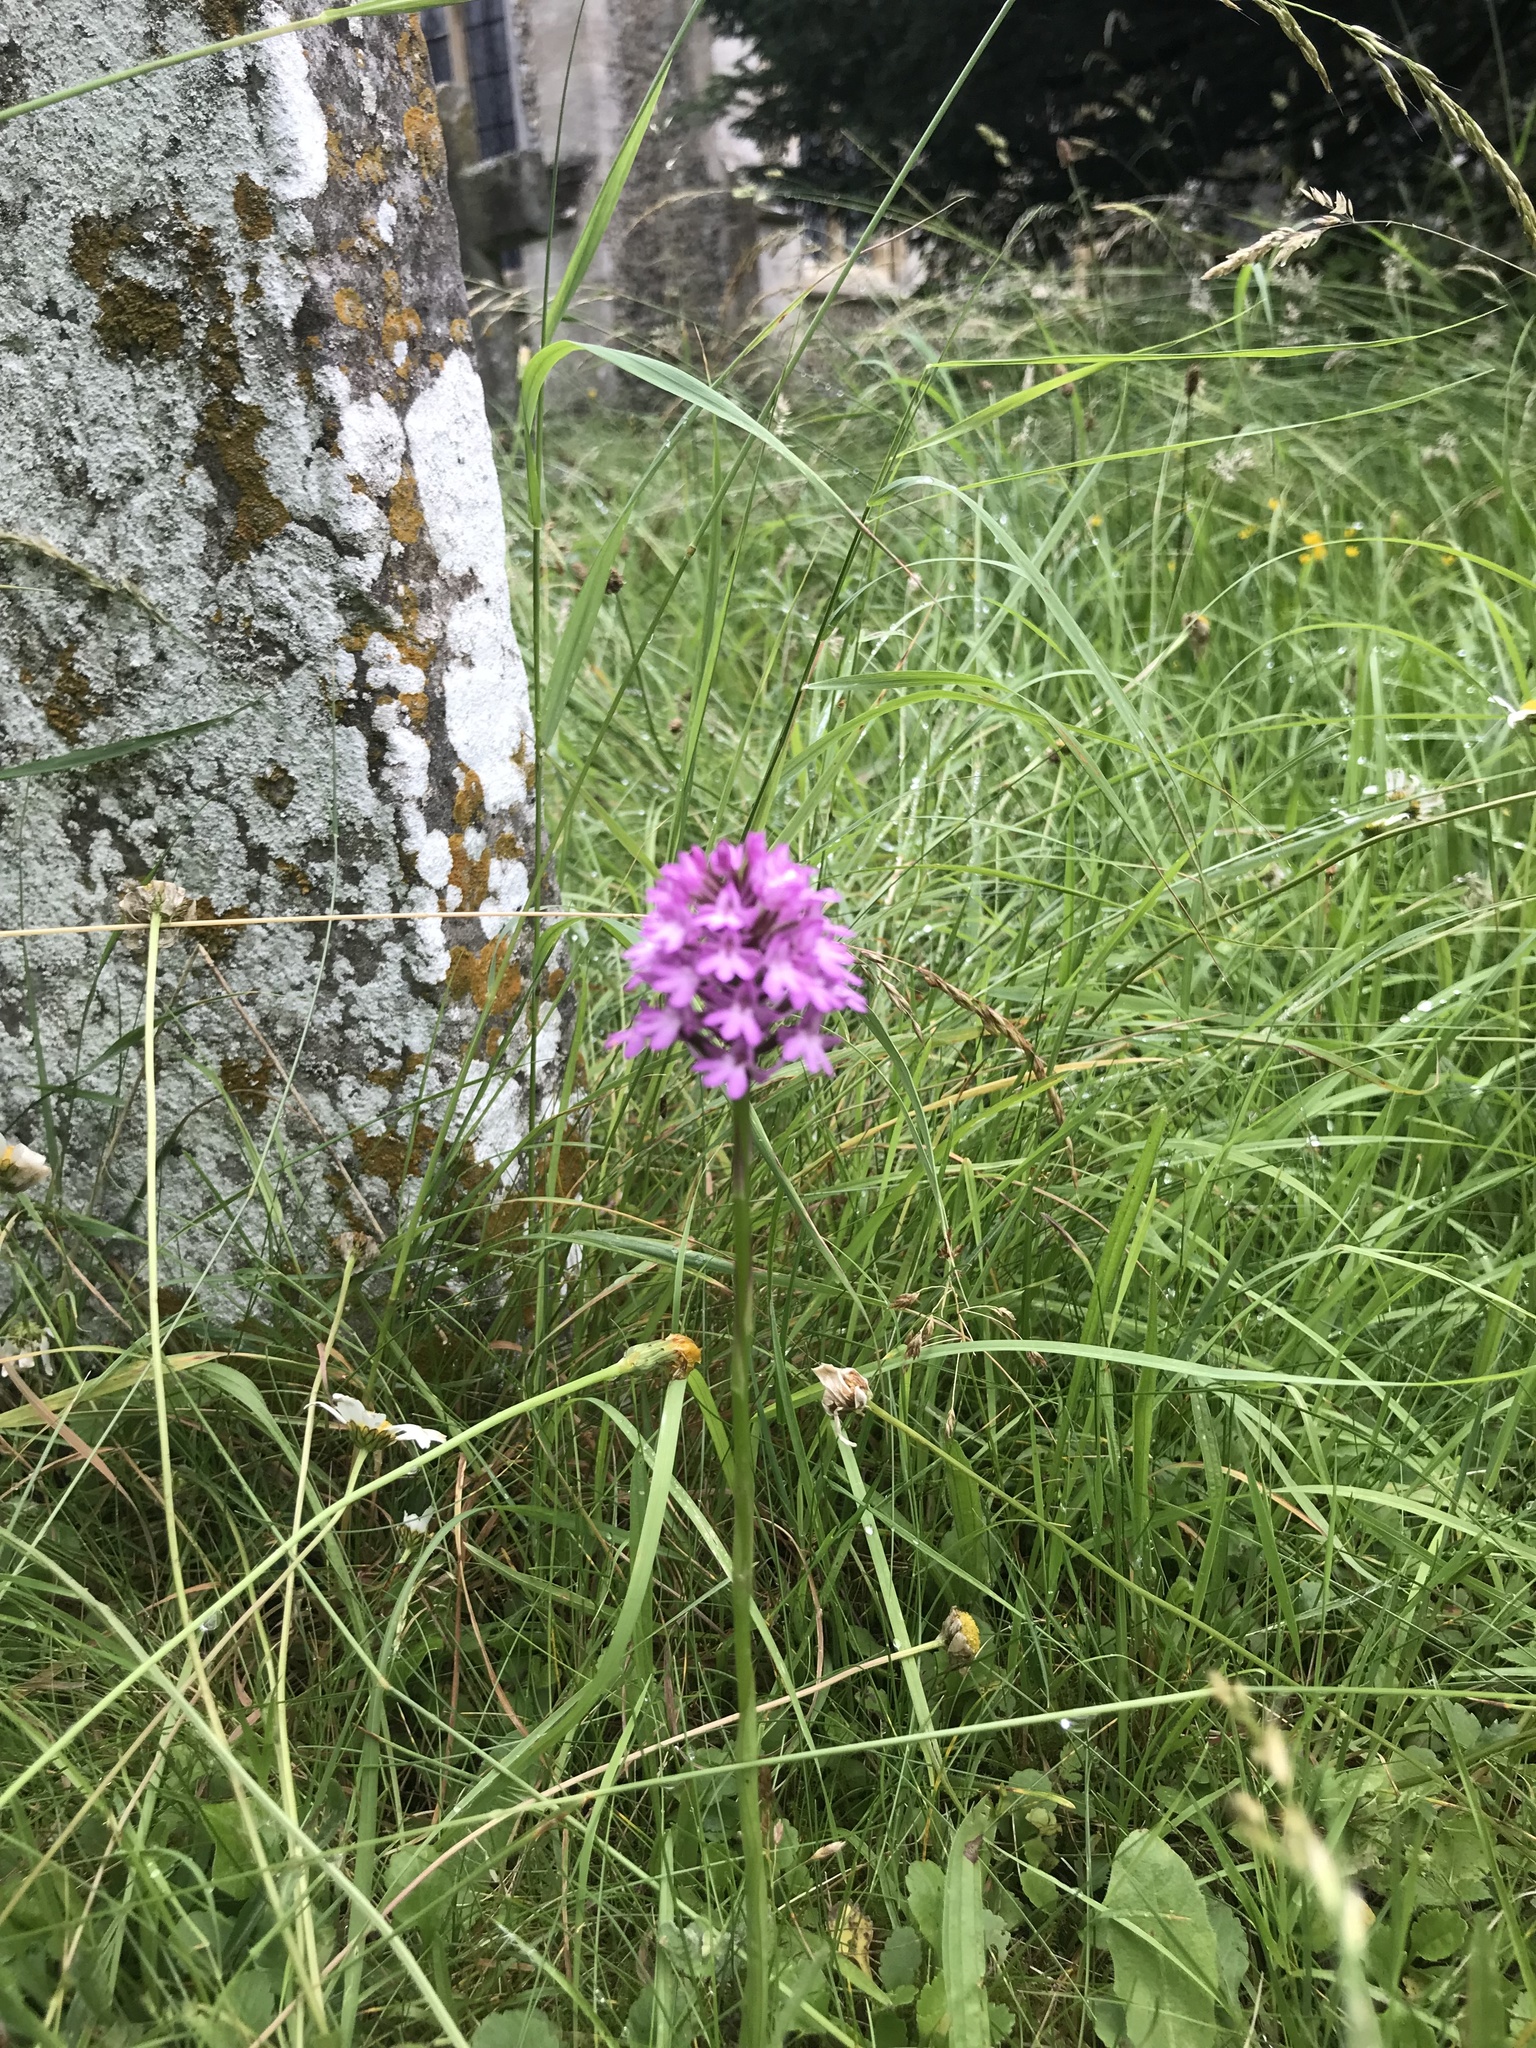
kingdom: Plantae
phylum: Tracheophyta
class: Liliopsida
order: Asparagales
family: Orchidaceae
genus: Anacamptis
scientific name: Anacamptis pyramidalis
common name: Pyramidal orchid
